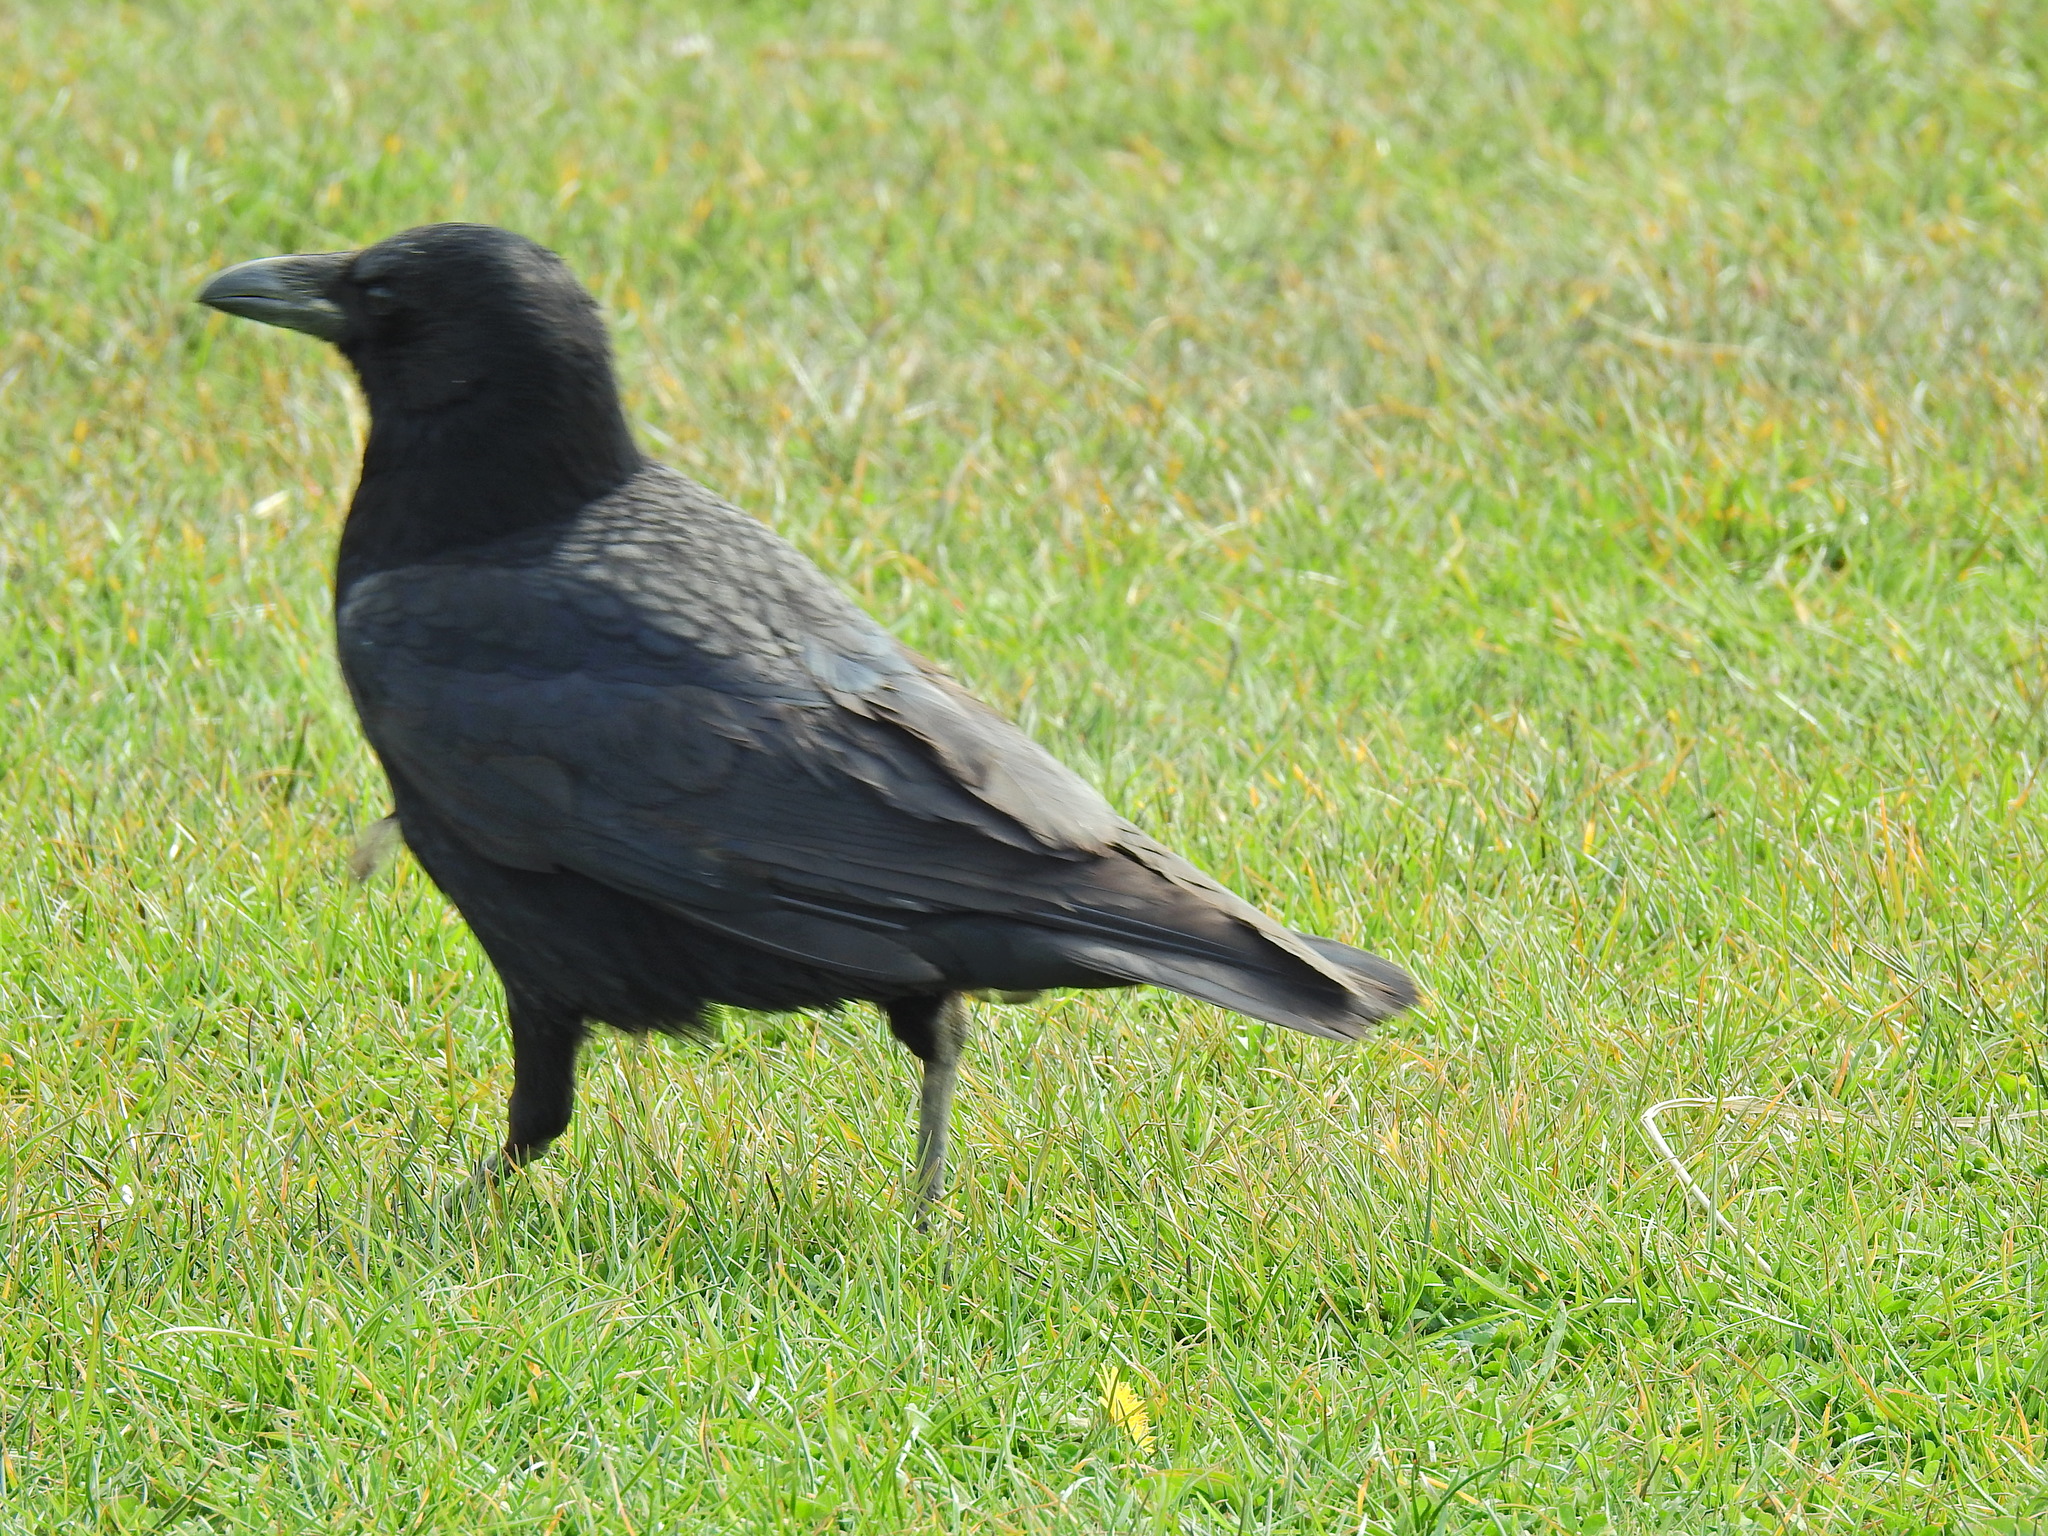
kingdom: Animalia
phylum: Chordata
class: Aves
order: Passeriformes
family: Corvidae
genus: Corvus
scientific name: Corvus corone
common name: Carrion crow
